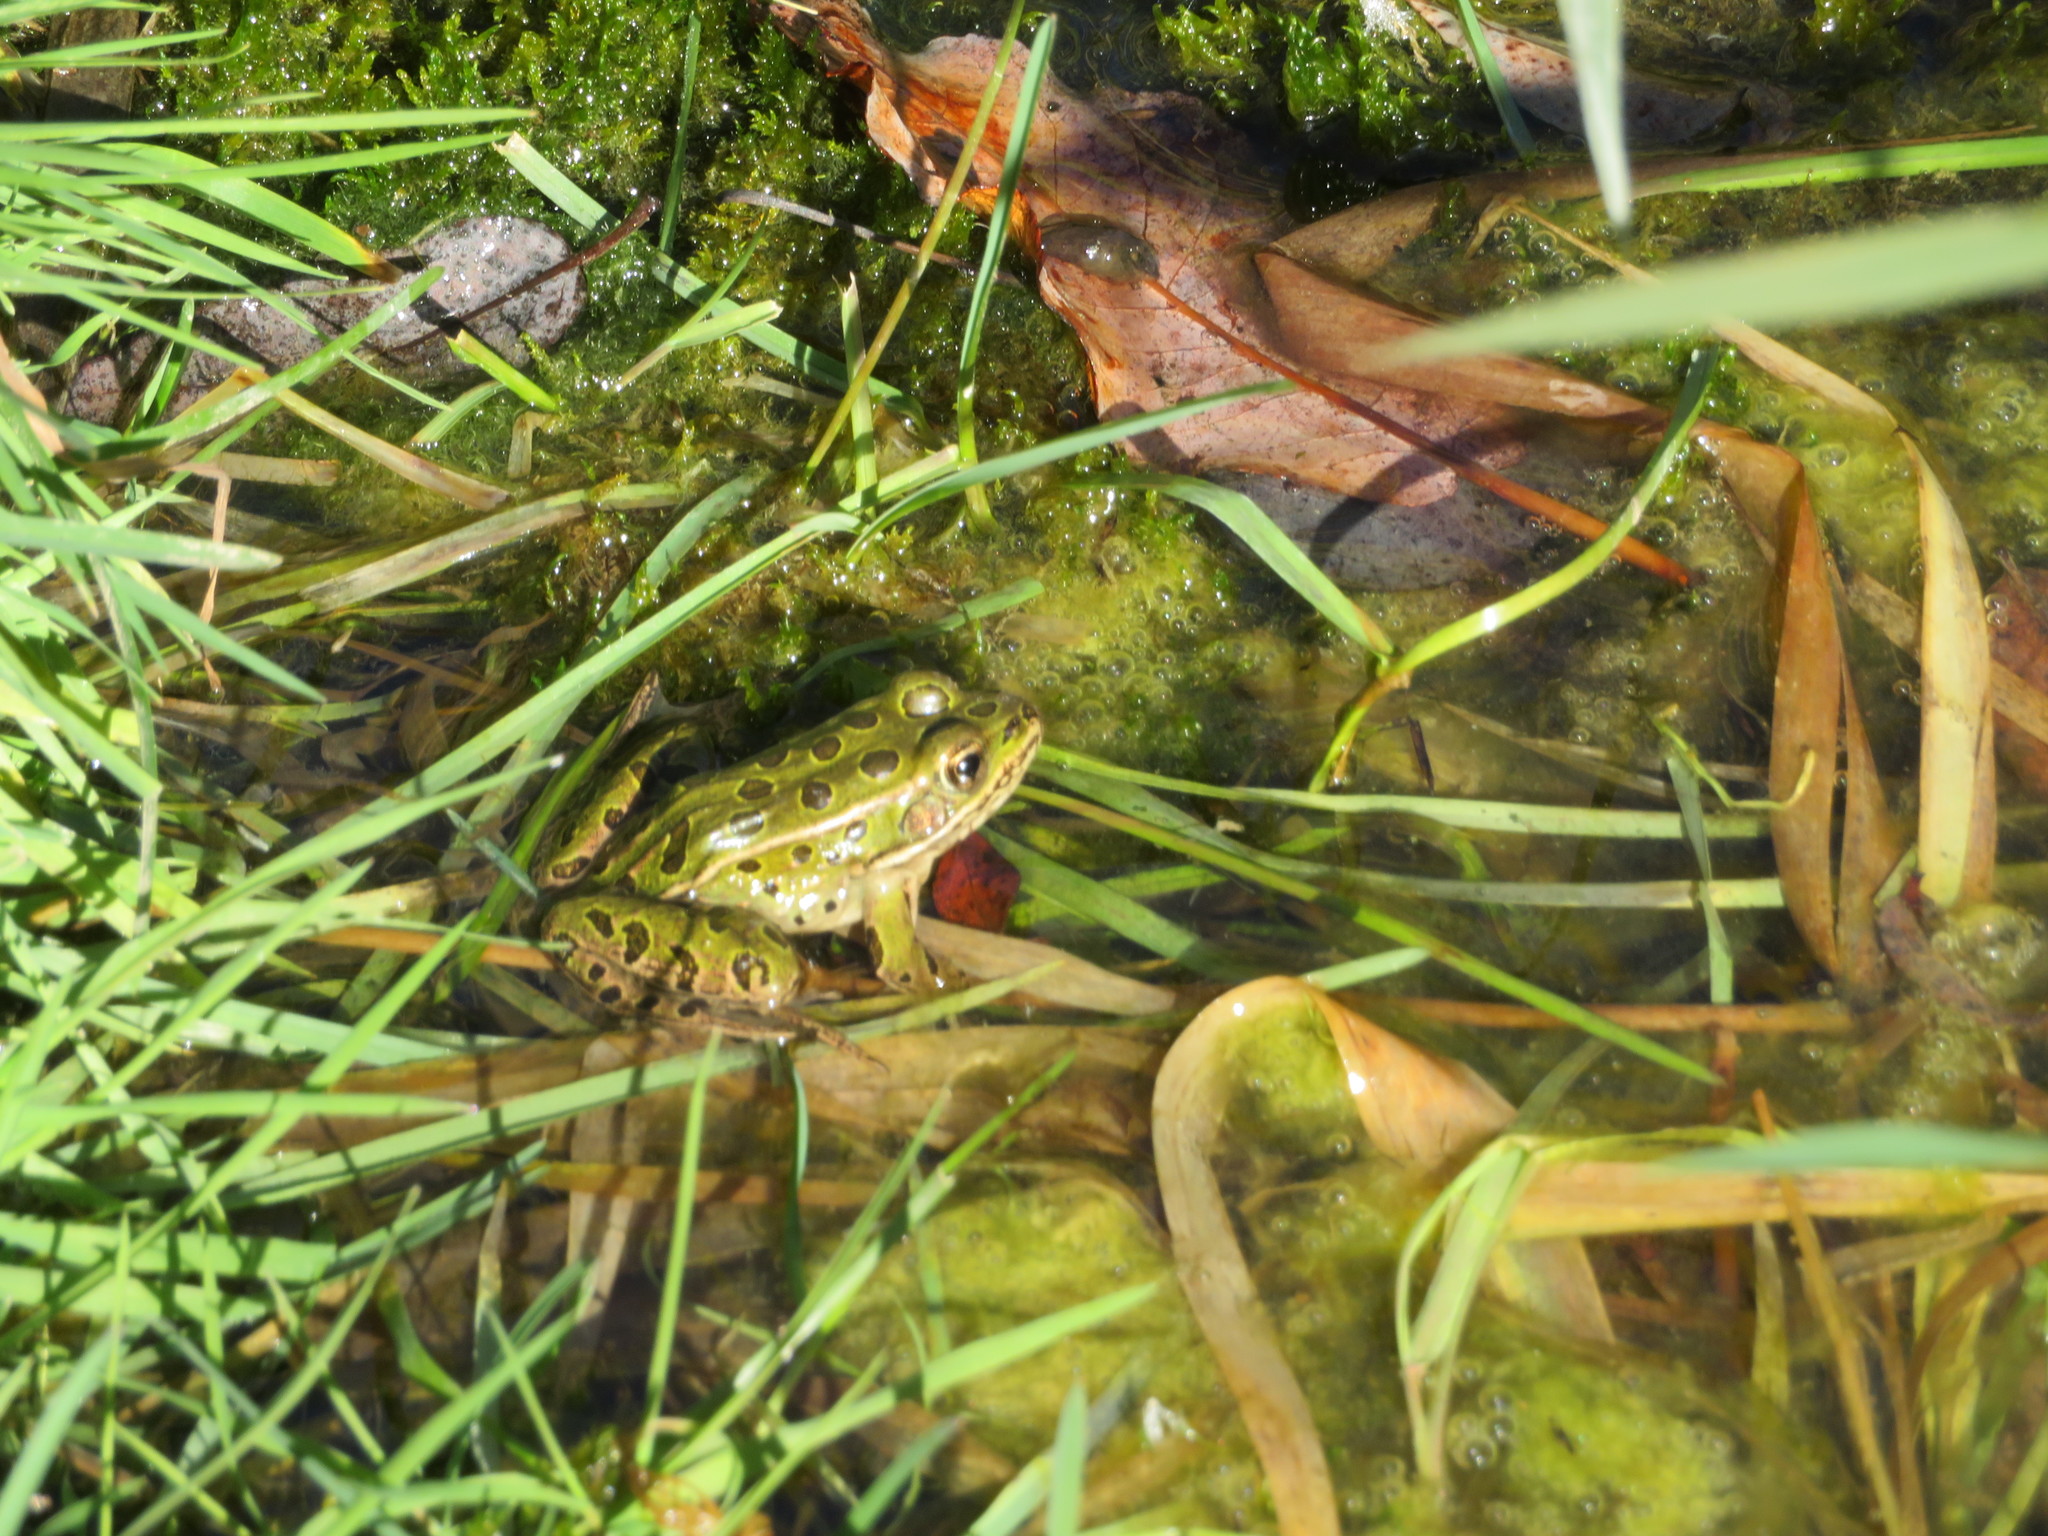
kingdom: Animalia
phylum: Chordata
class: Amphibia
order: Anura
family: Ranidae
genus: Lithobates
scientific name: Lithobates pipiens
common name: Northern leopard frog
